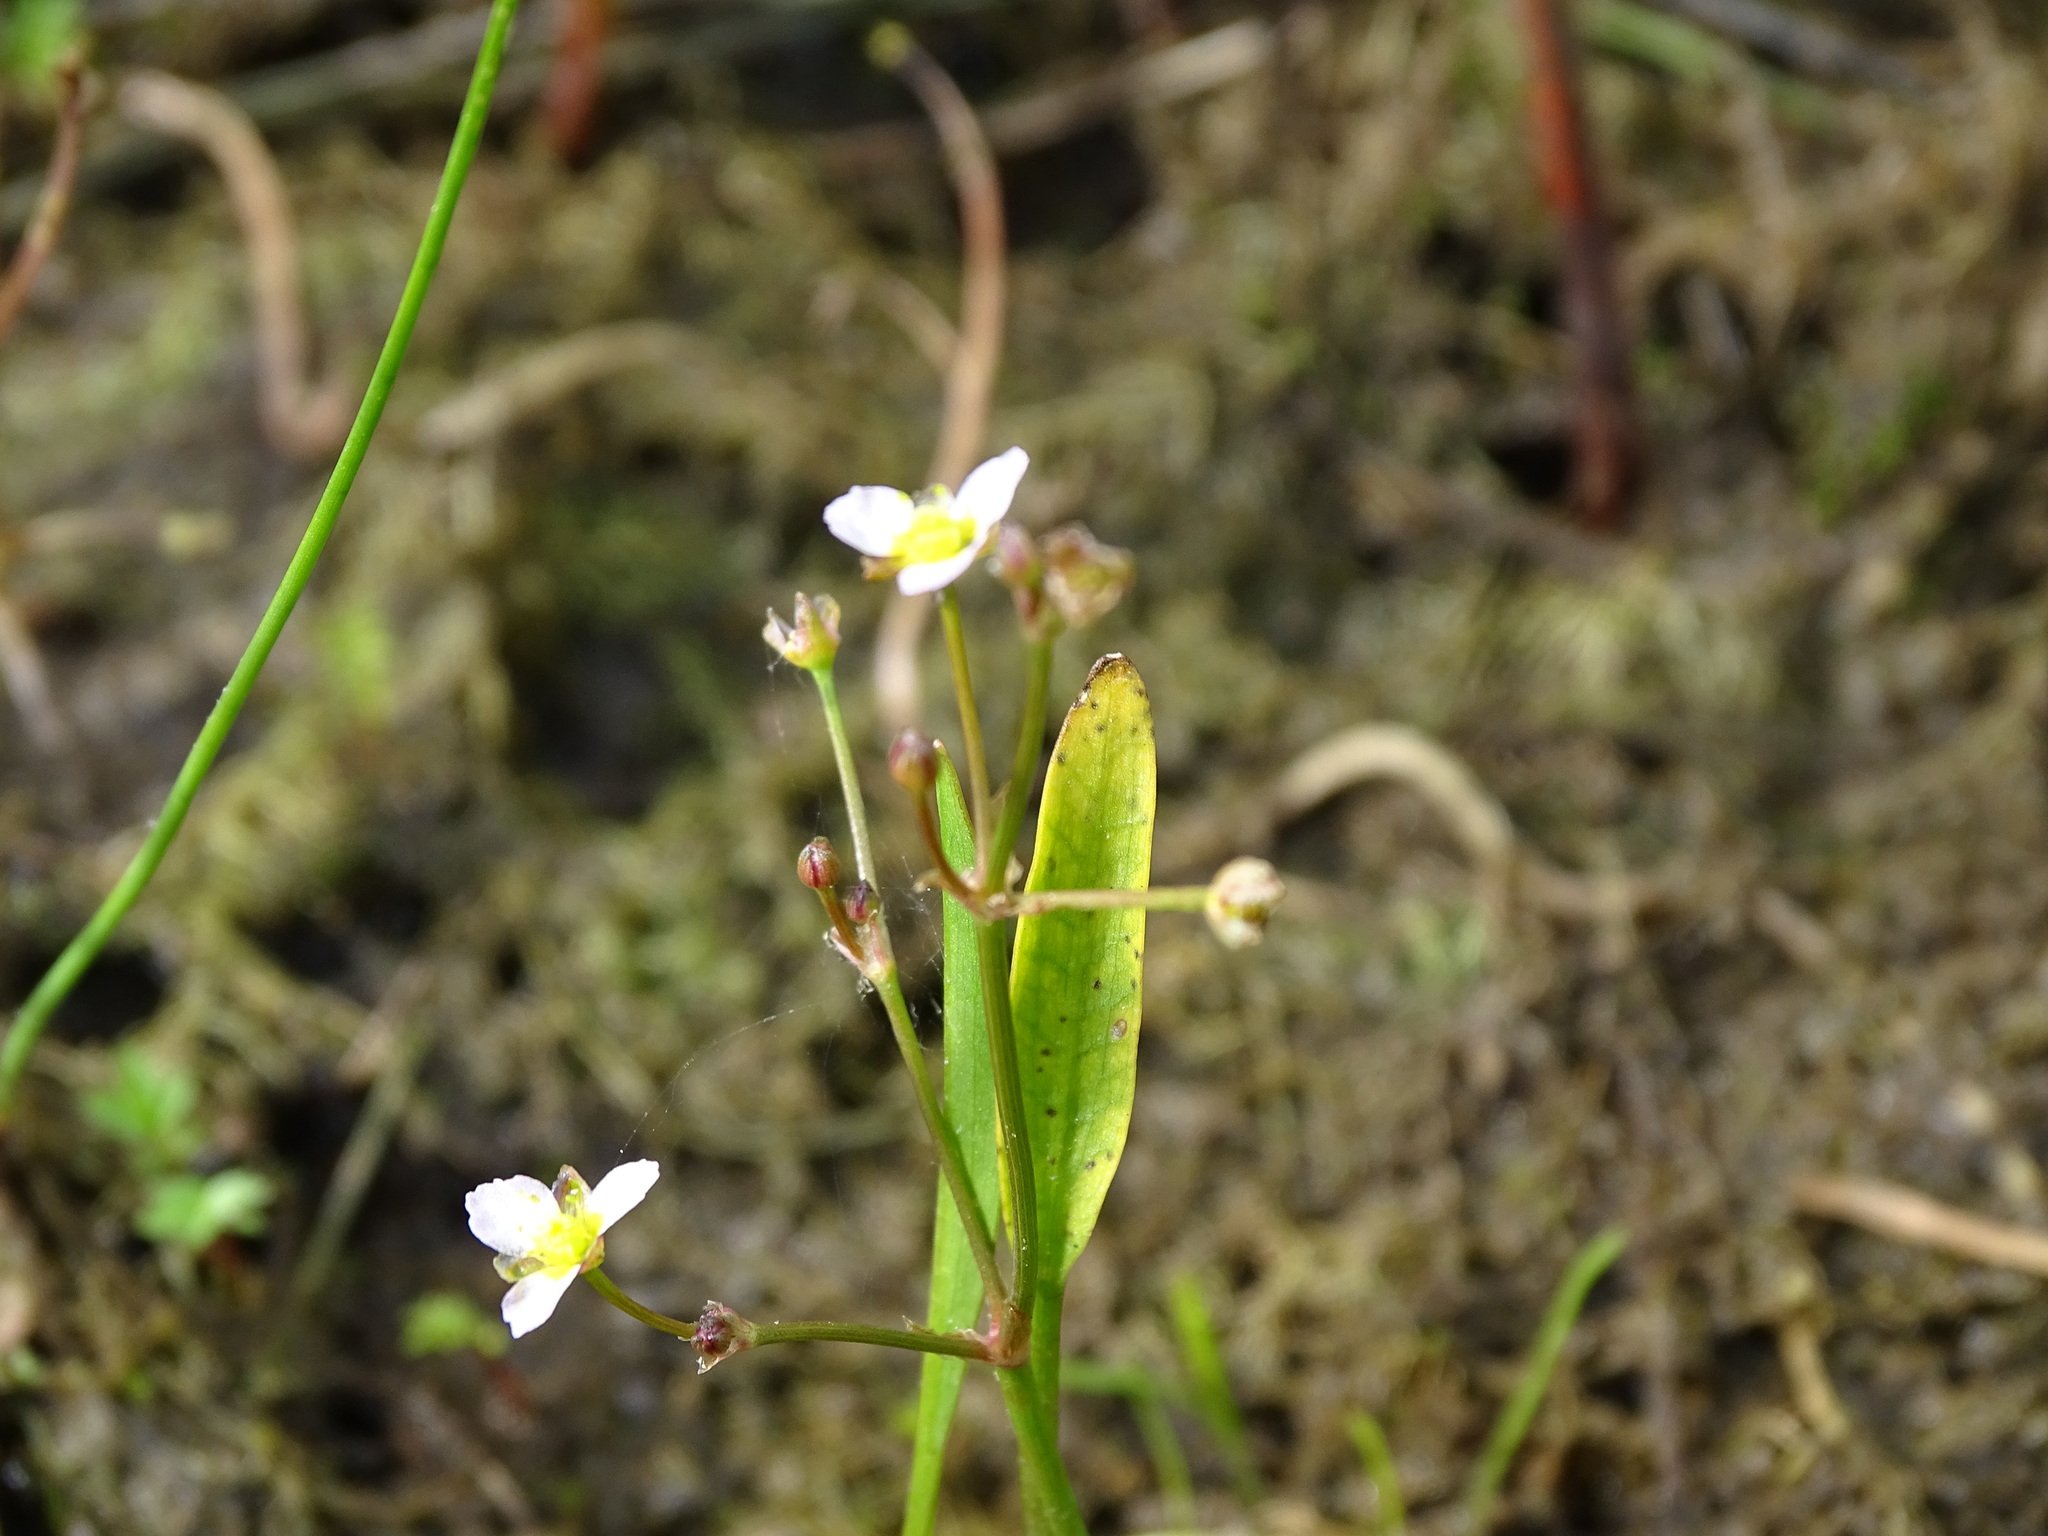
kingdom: Plantae
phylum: Tracheophyta
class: Liliopsida
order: Alismatales
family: Alismataceae
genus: Alisma
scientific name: Alisma gramineum
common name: Ribbon-leaved water-plantain
